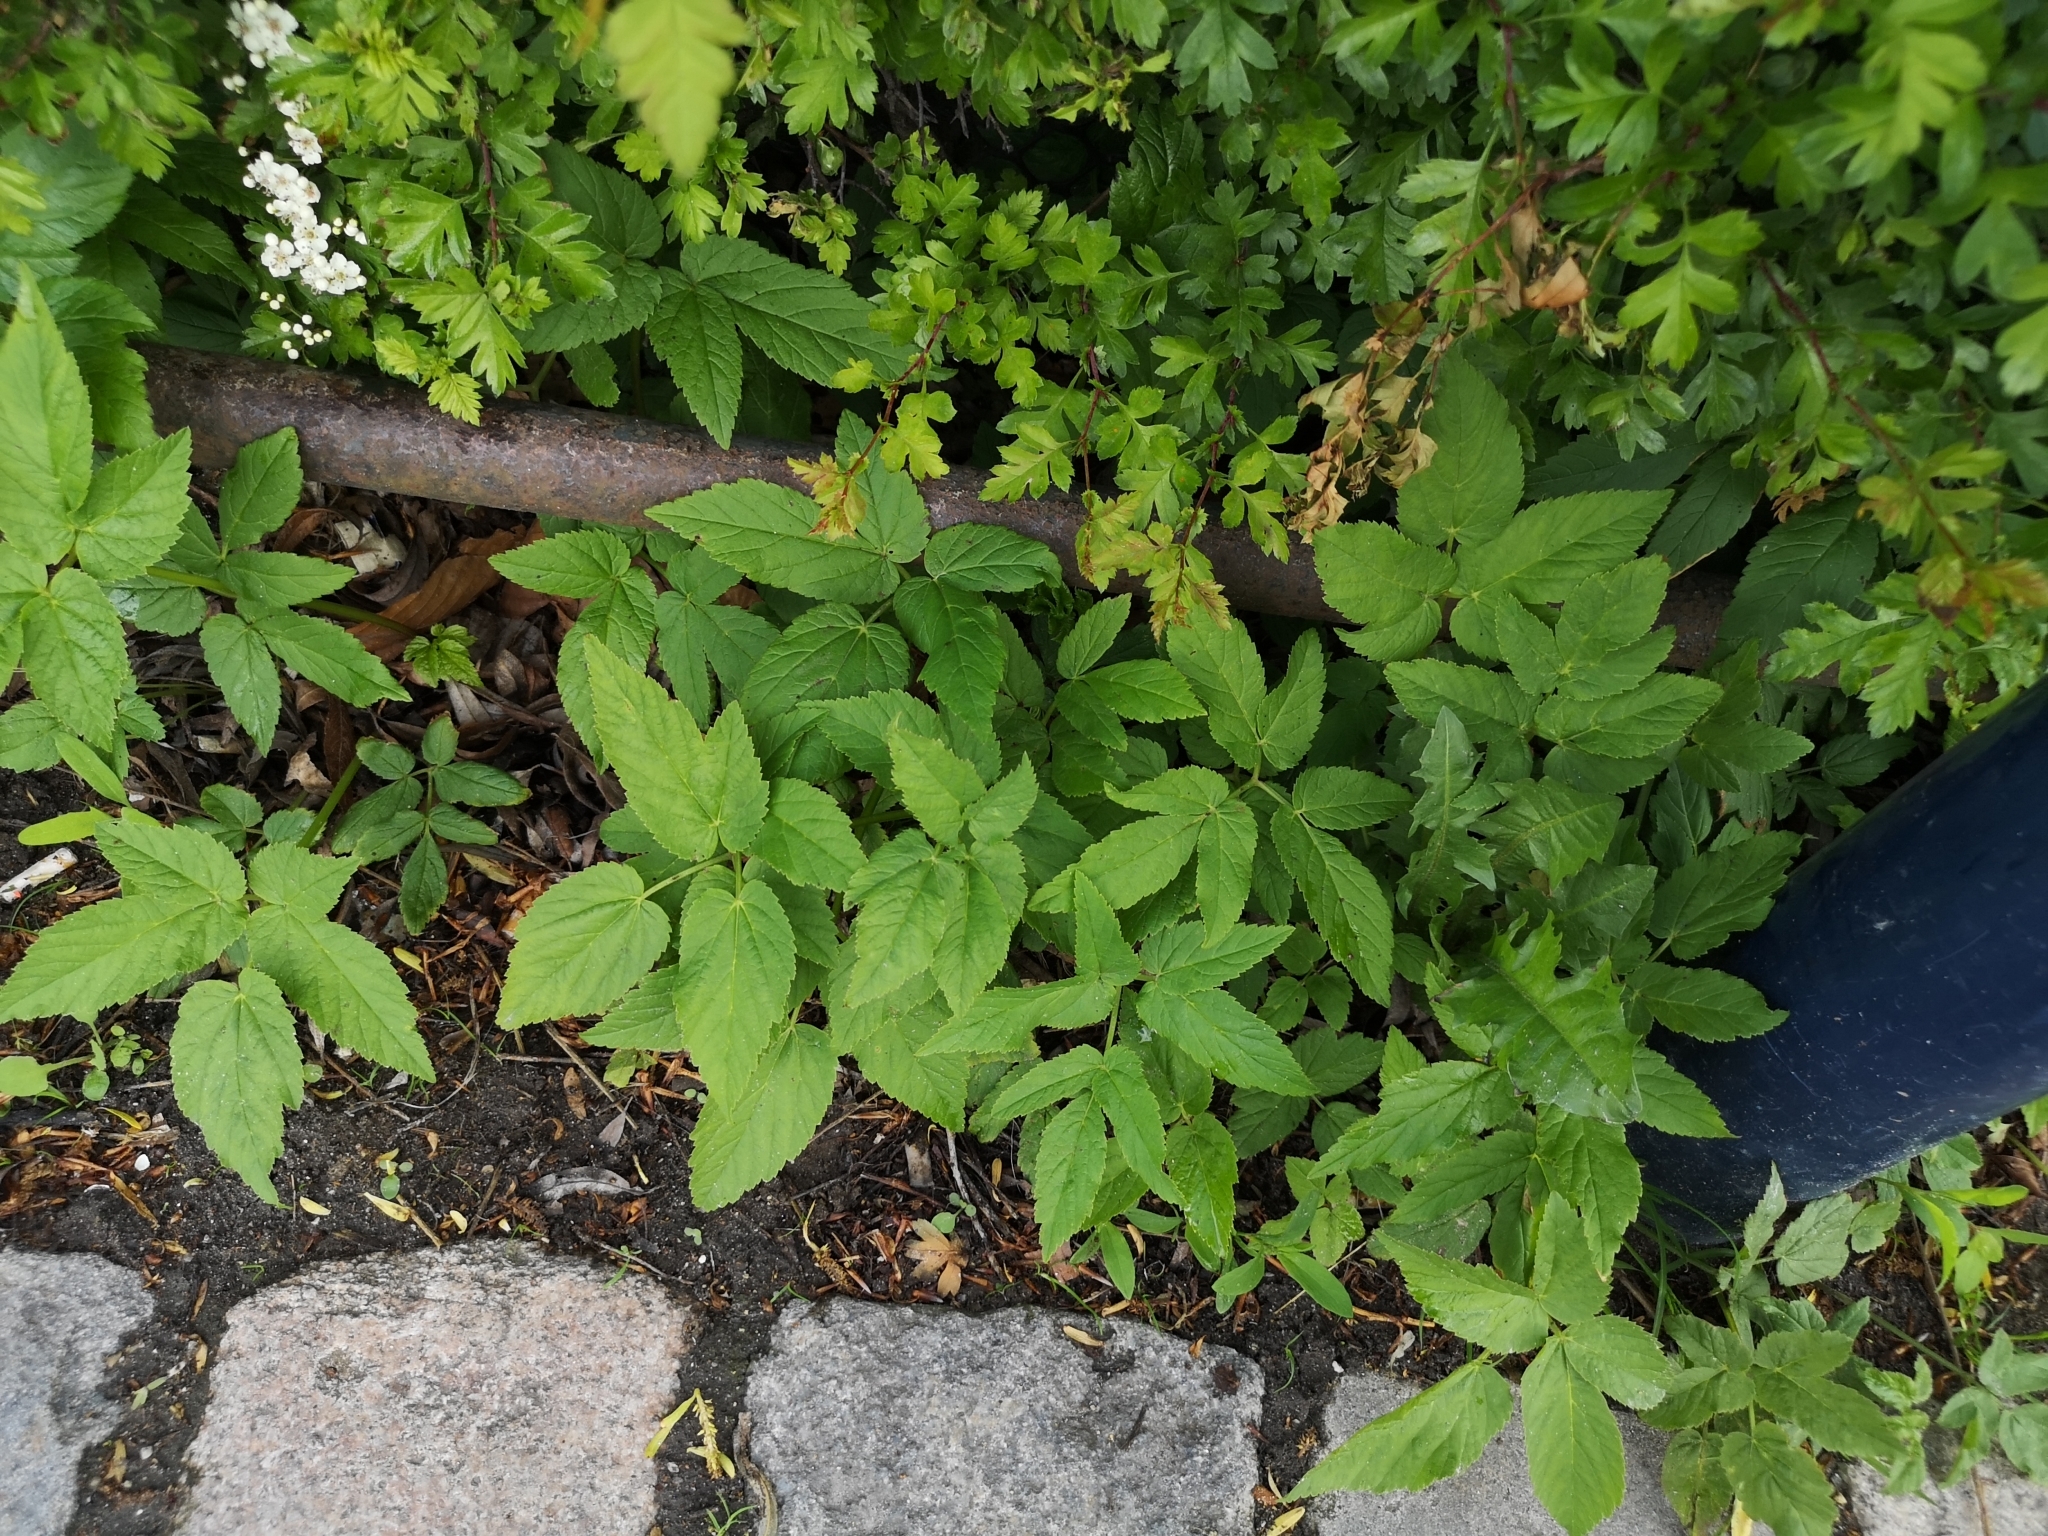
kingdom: Plantae
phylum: Tracheophyta
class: Magnoliopsida
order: Apiales
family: Apiaceae
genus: Aegopodium
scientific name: Aegopodium podagraria
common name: Ground-elder
